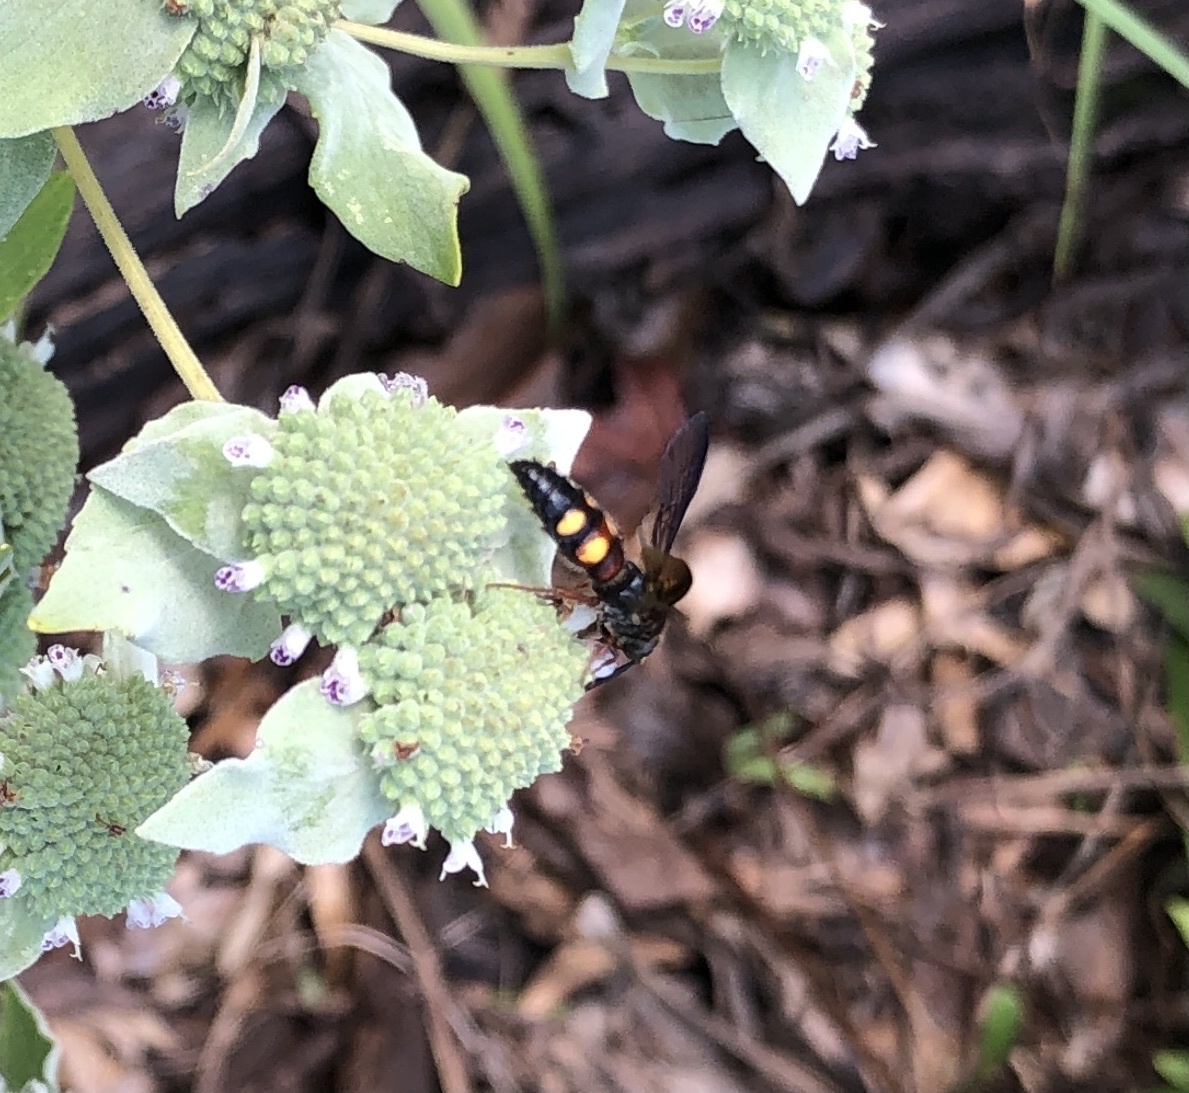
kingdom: Animalia
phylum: Arthropoda
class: Insecta
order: Hymenoptera
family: Scoliidae
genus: Scolia
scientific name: Scolia nobilitata
